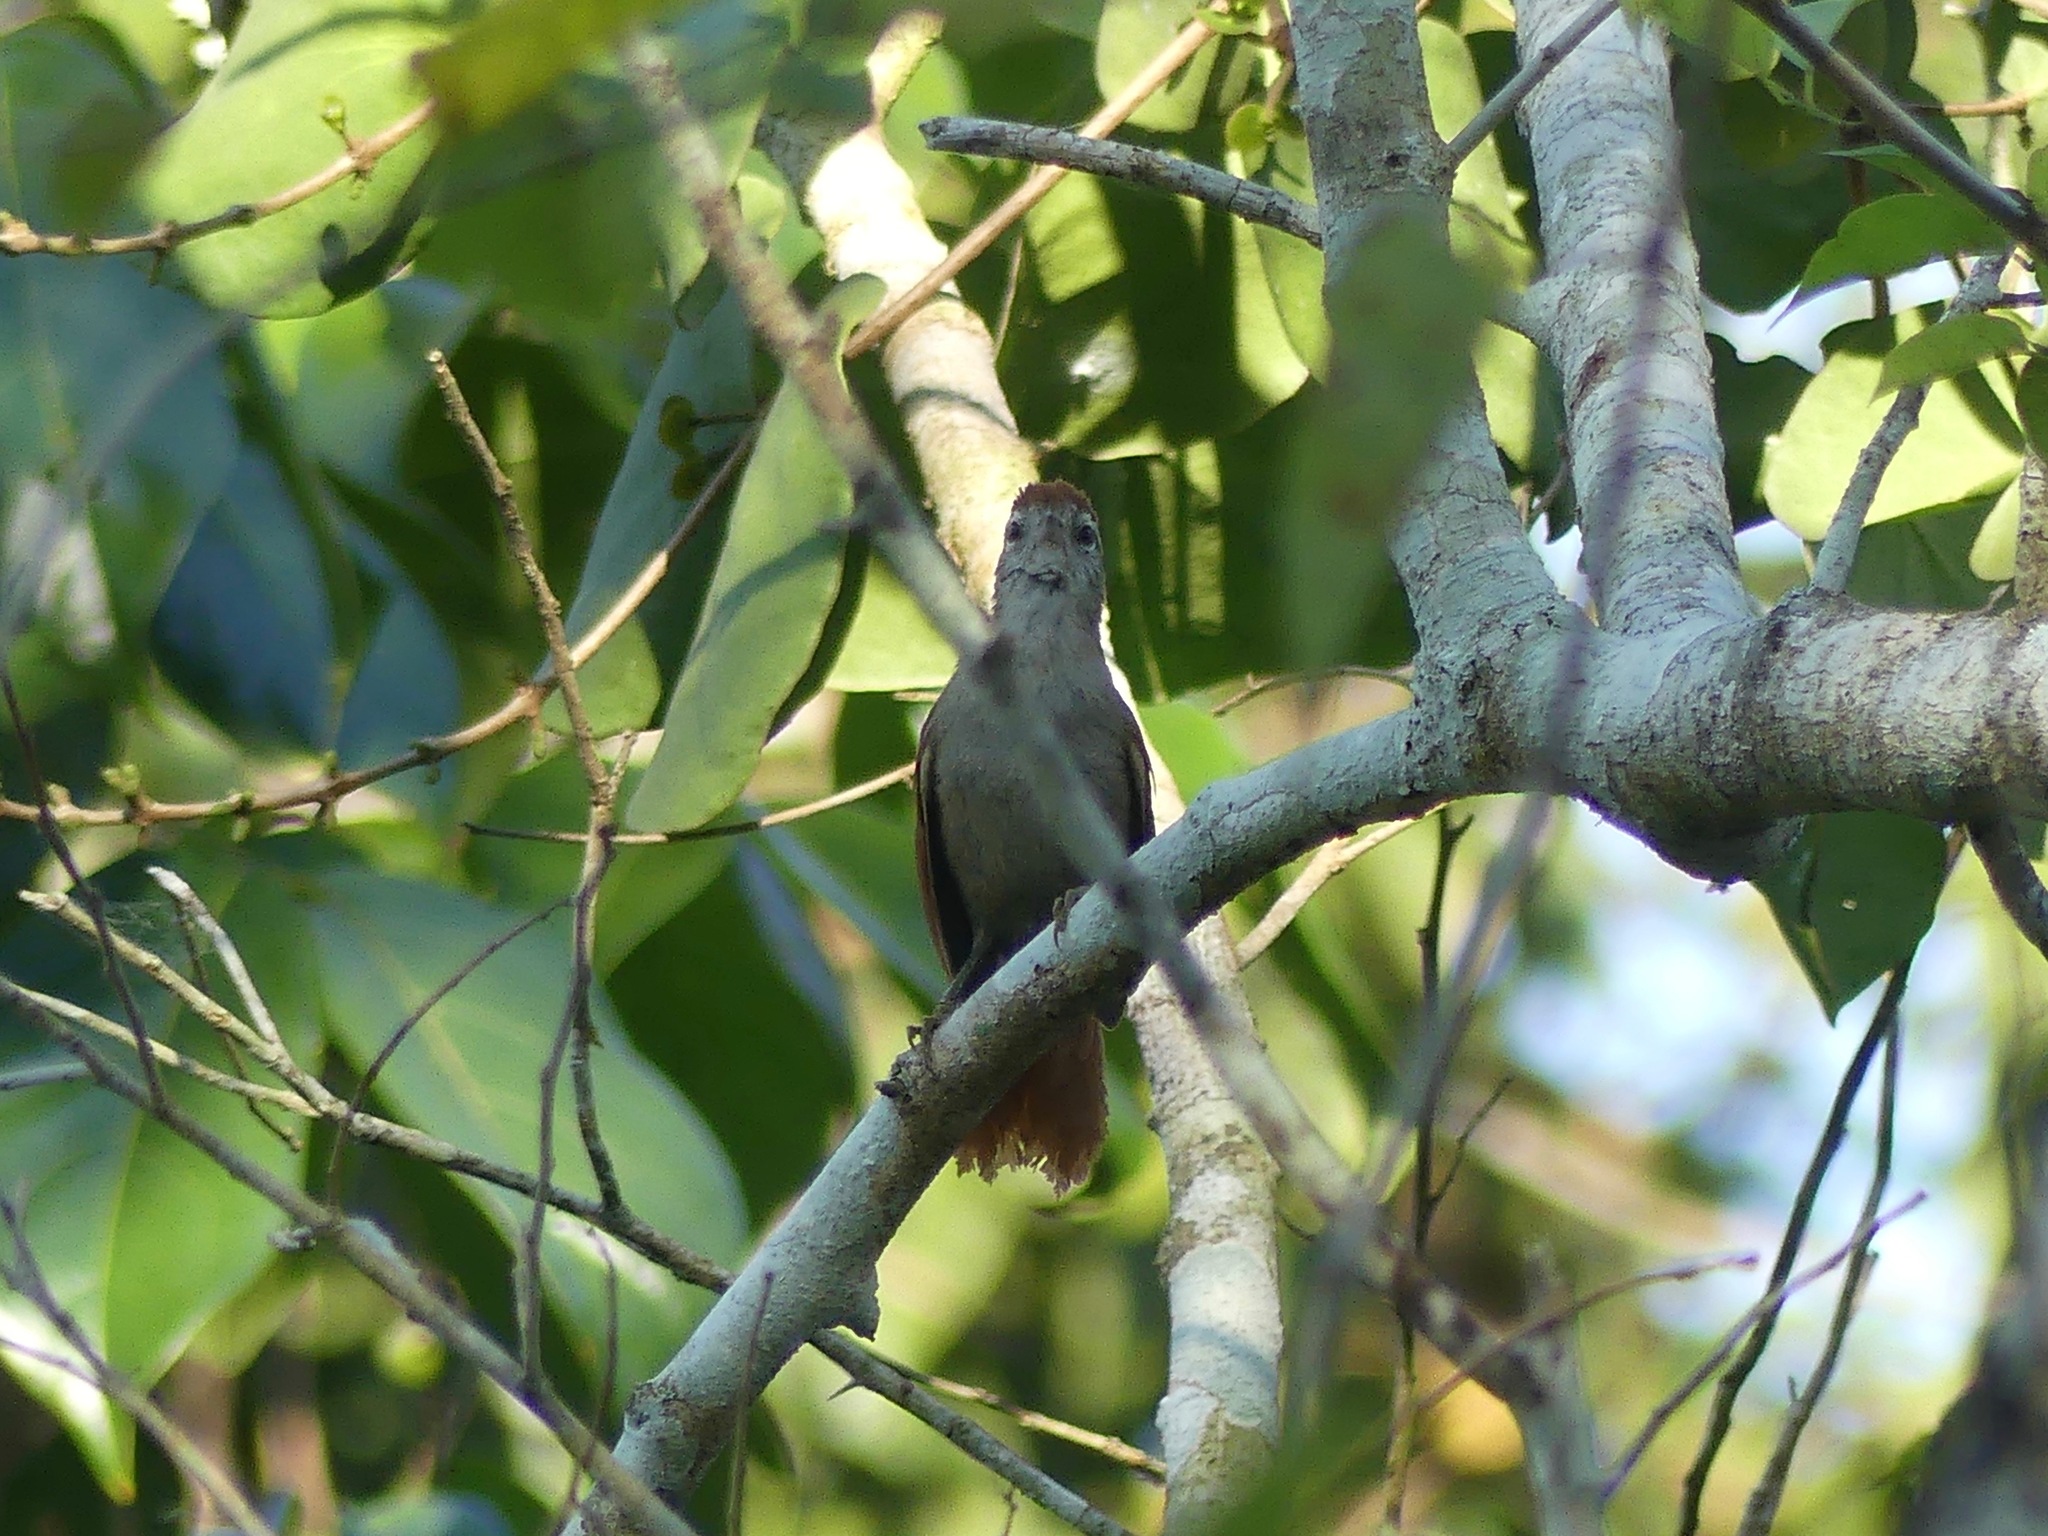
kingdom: Animalia
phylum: Chordata
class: Aves
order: Passeriformes
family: Furnariidae
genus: Cranioleuca
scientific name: Cranioleuca vulpina
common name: Rusty-backed spinetail
